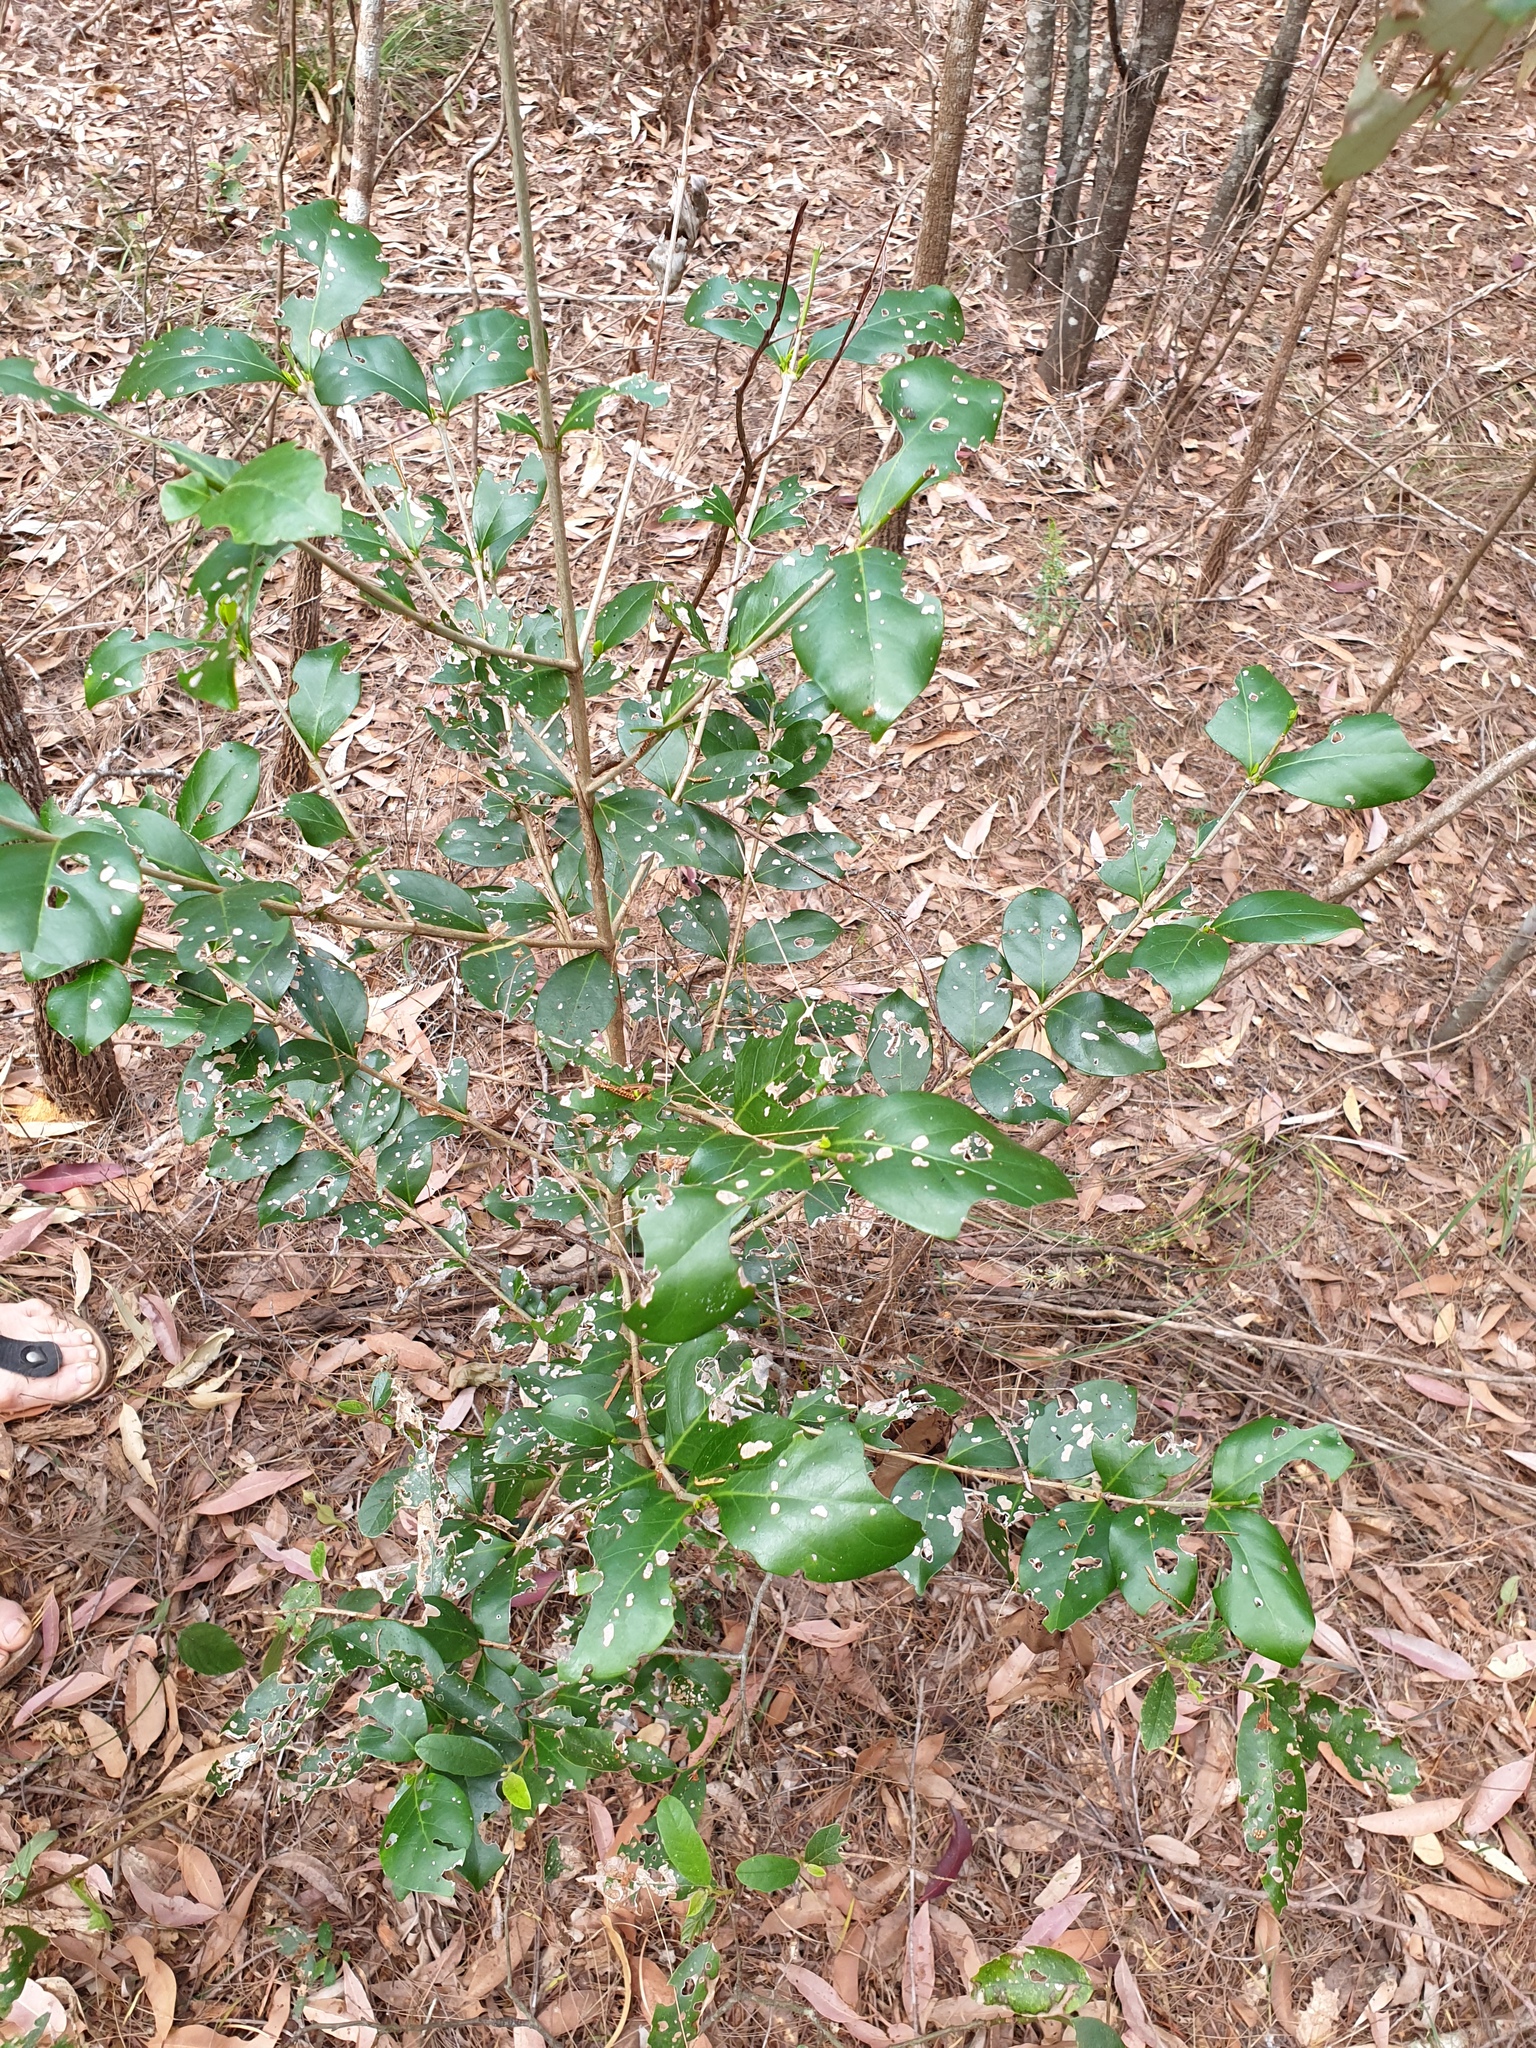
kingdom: Plantae
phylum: Tracheophyta
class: Magnoliopsida
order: Gentianales
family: Rubiaceae
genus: Psydrax
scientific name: Psydrax odoratus
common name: Alahe'e
